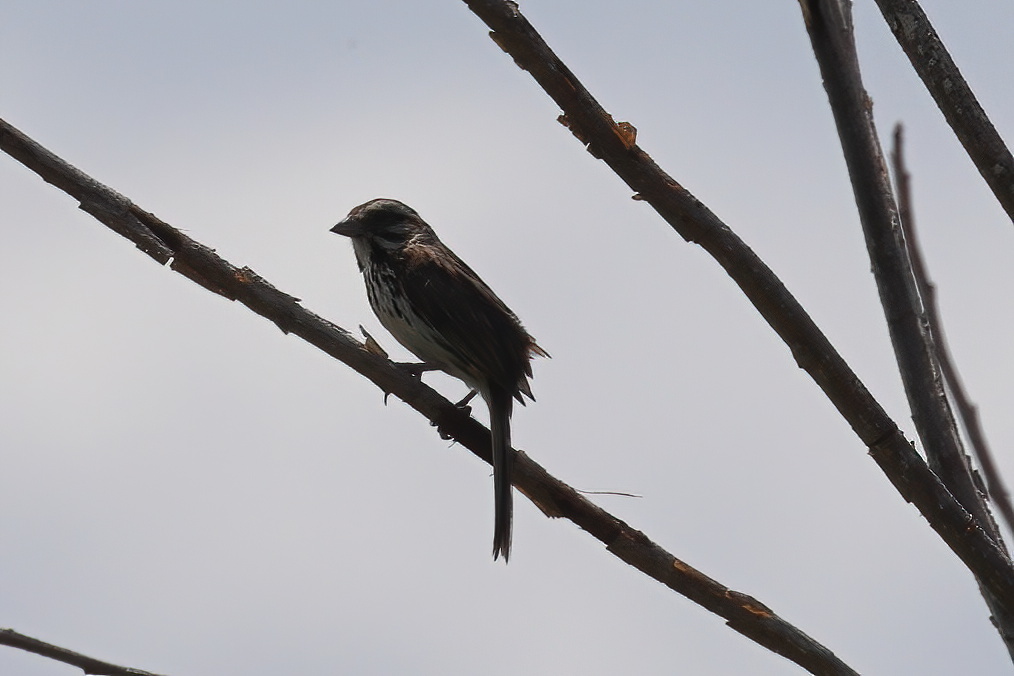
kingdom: Animalia
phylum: Chordata
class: Aves
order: Passeriformes
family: Passerellidae
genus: Melospiza
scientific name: Melospiza melodia
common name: Song sparrow
